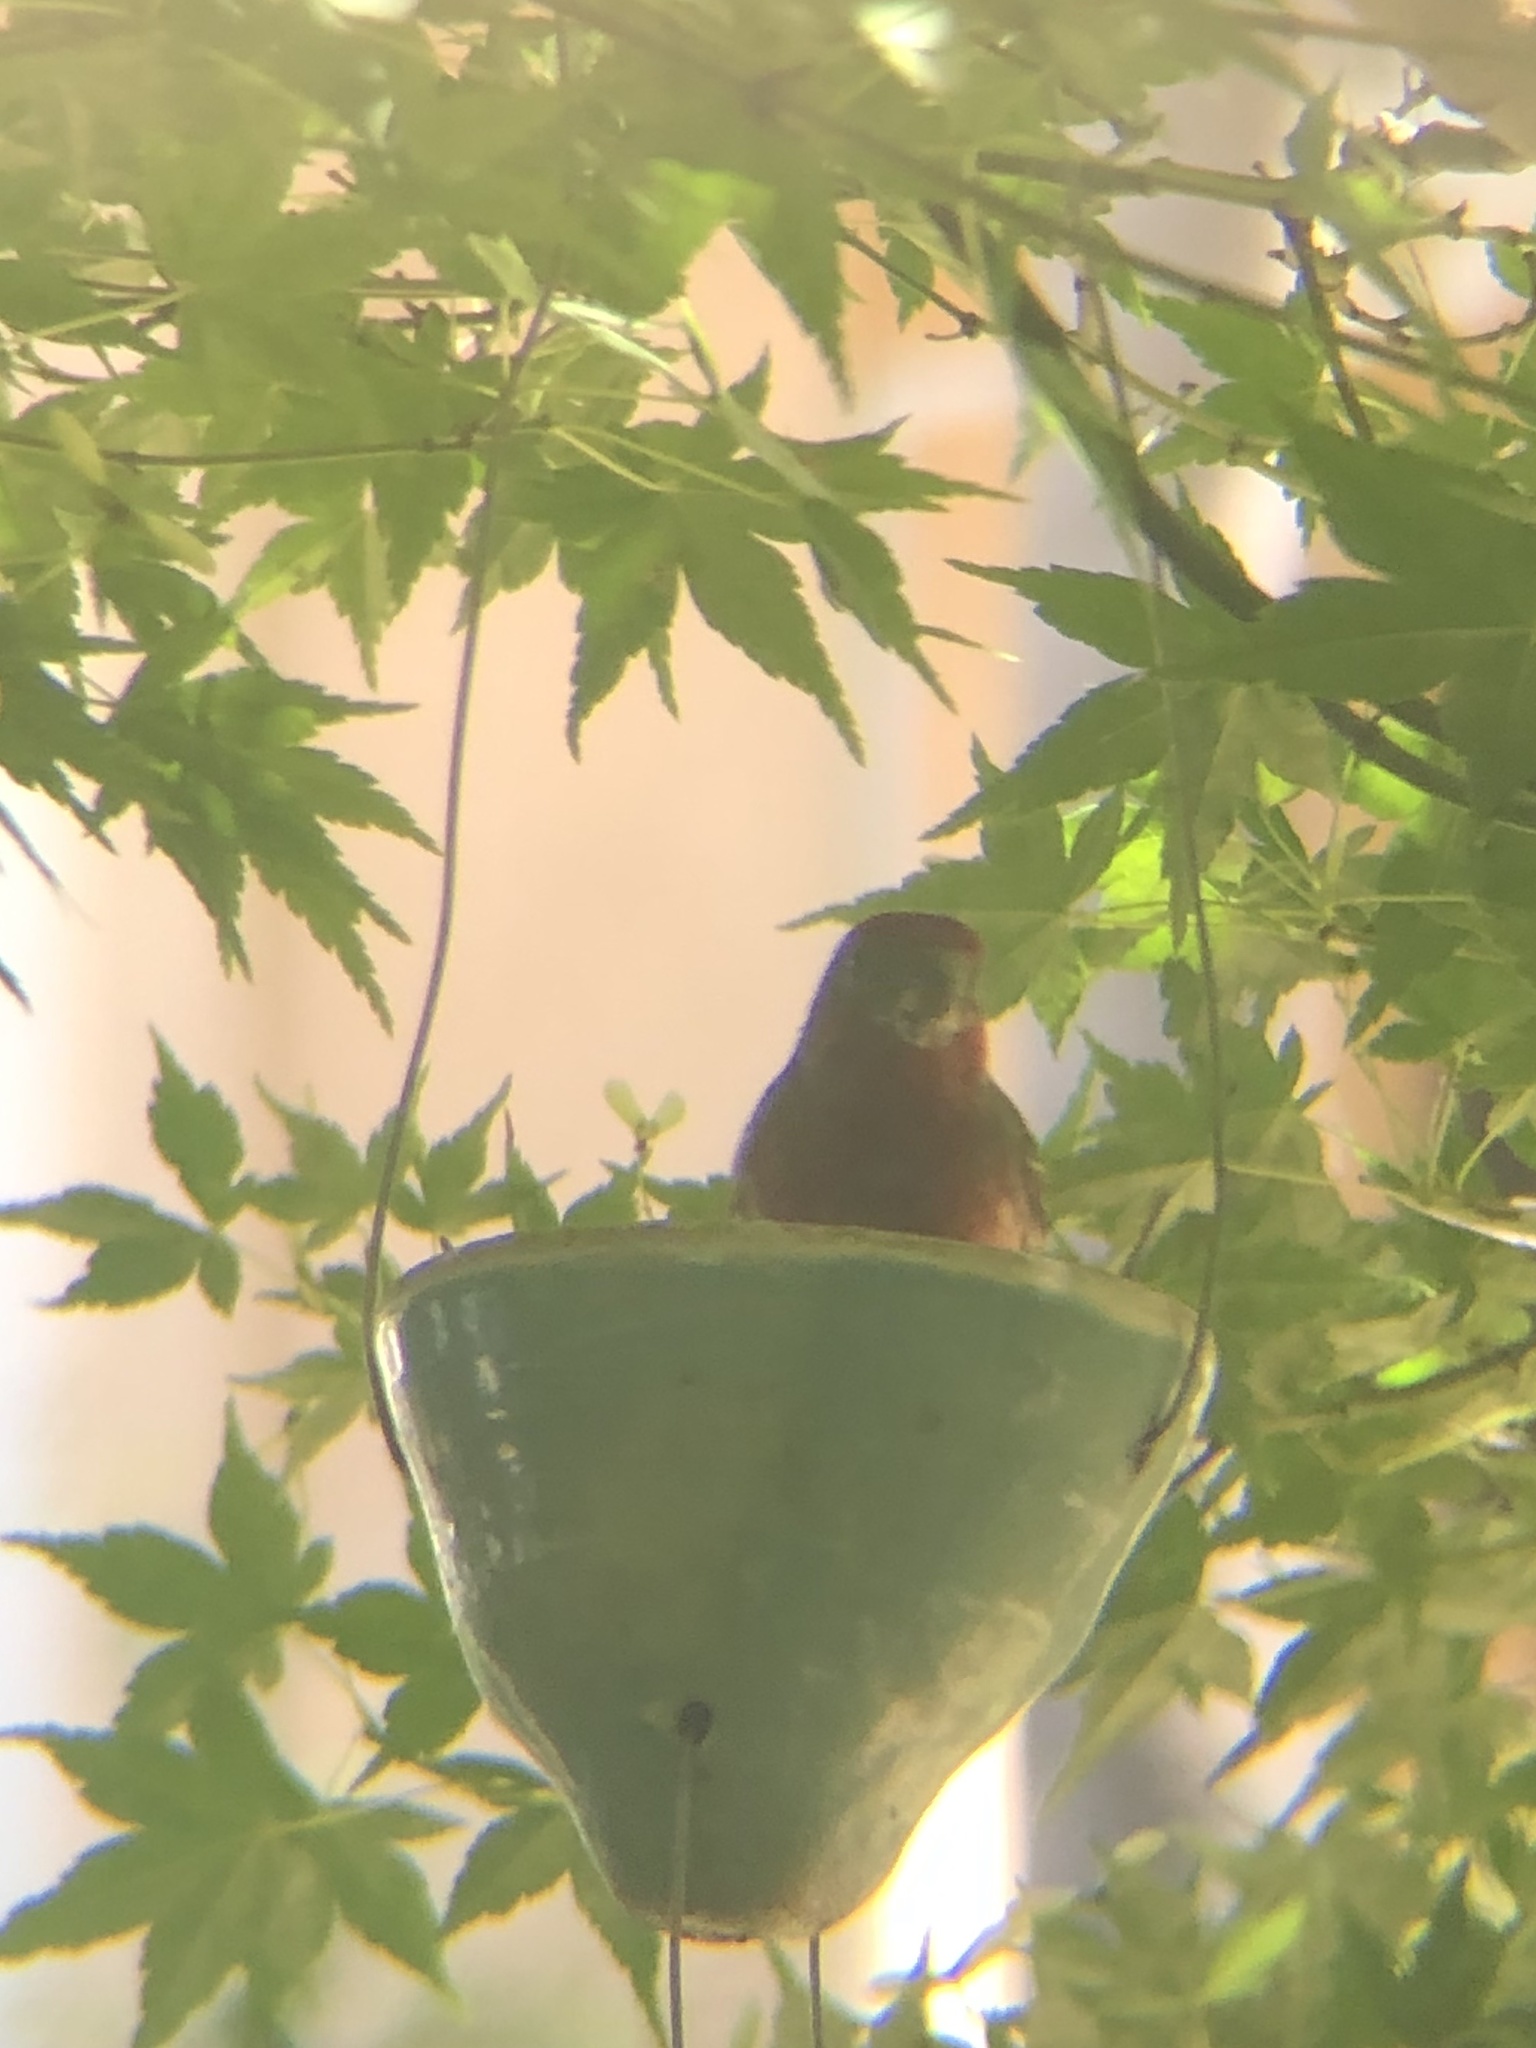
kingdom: Animalia
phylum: Chordata
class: Aves
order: Passeriformes
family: Fringillidae
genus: Haemorhous
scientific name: Haemorhous mexicanus
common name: House finch
